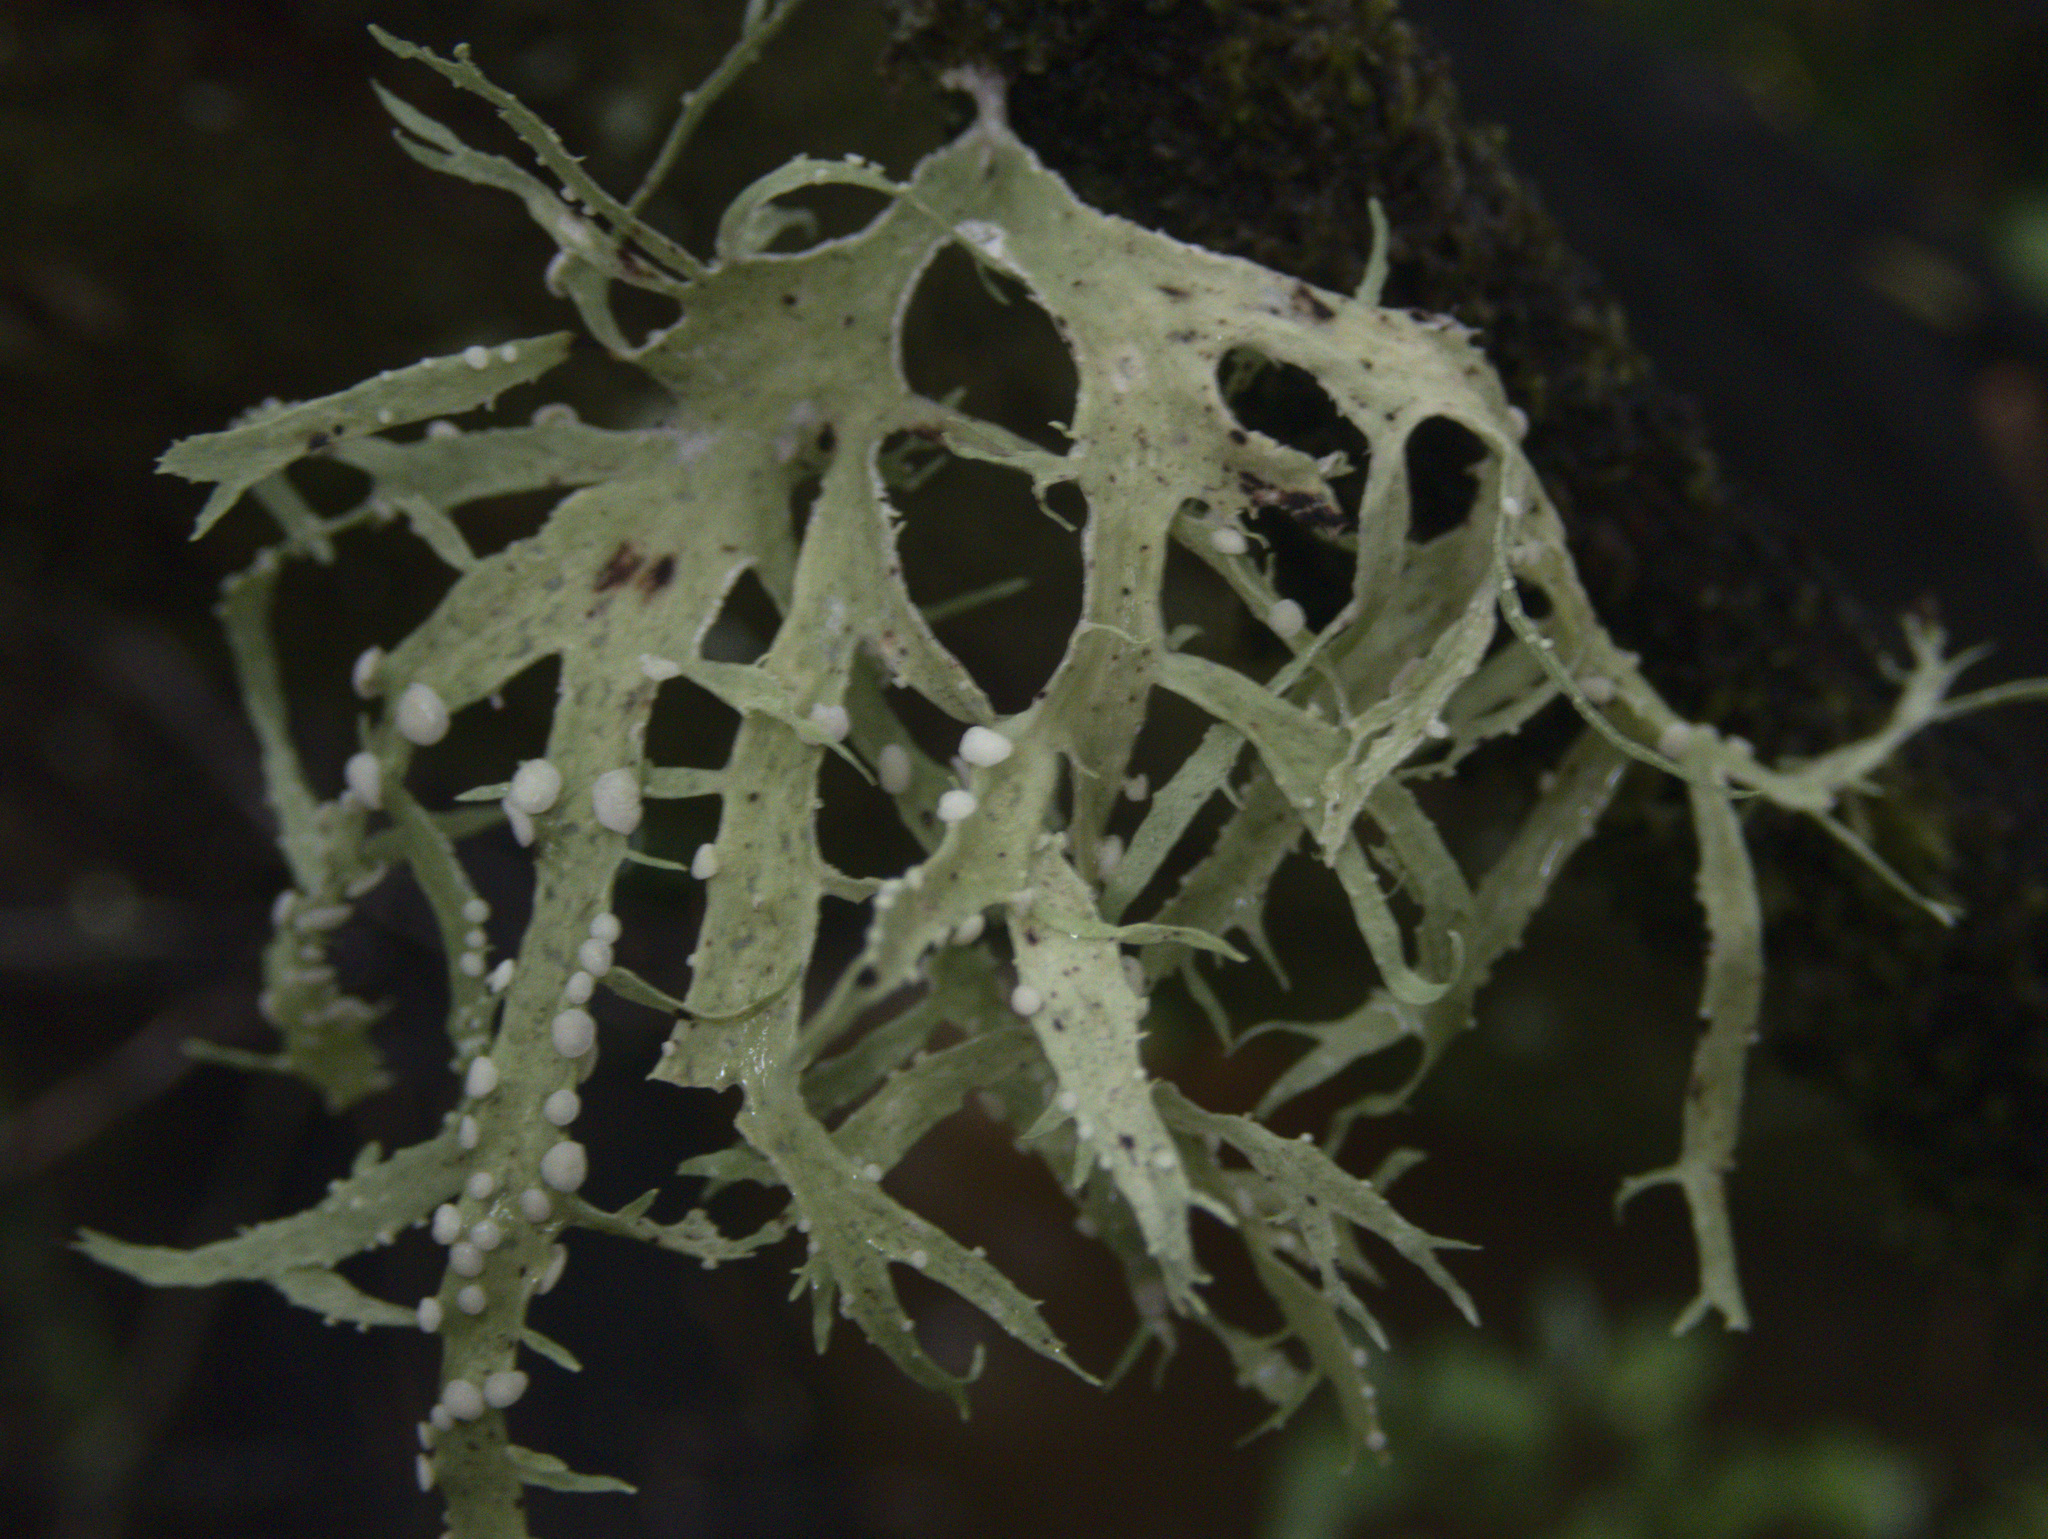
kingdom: Fungi
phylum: Ascomycota
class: Lecanoromycetes
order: Lecanorales
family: Ramalinaceae
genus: Ramalina
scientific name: Ramalina celastri
